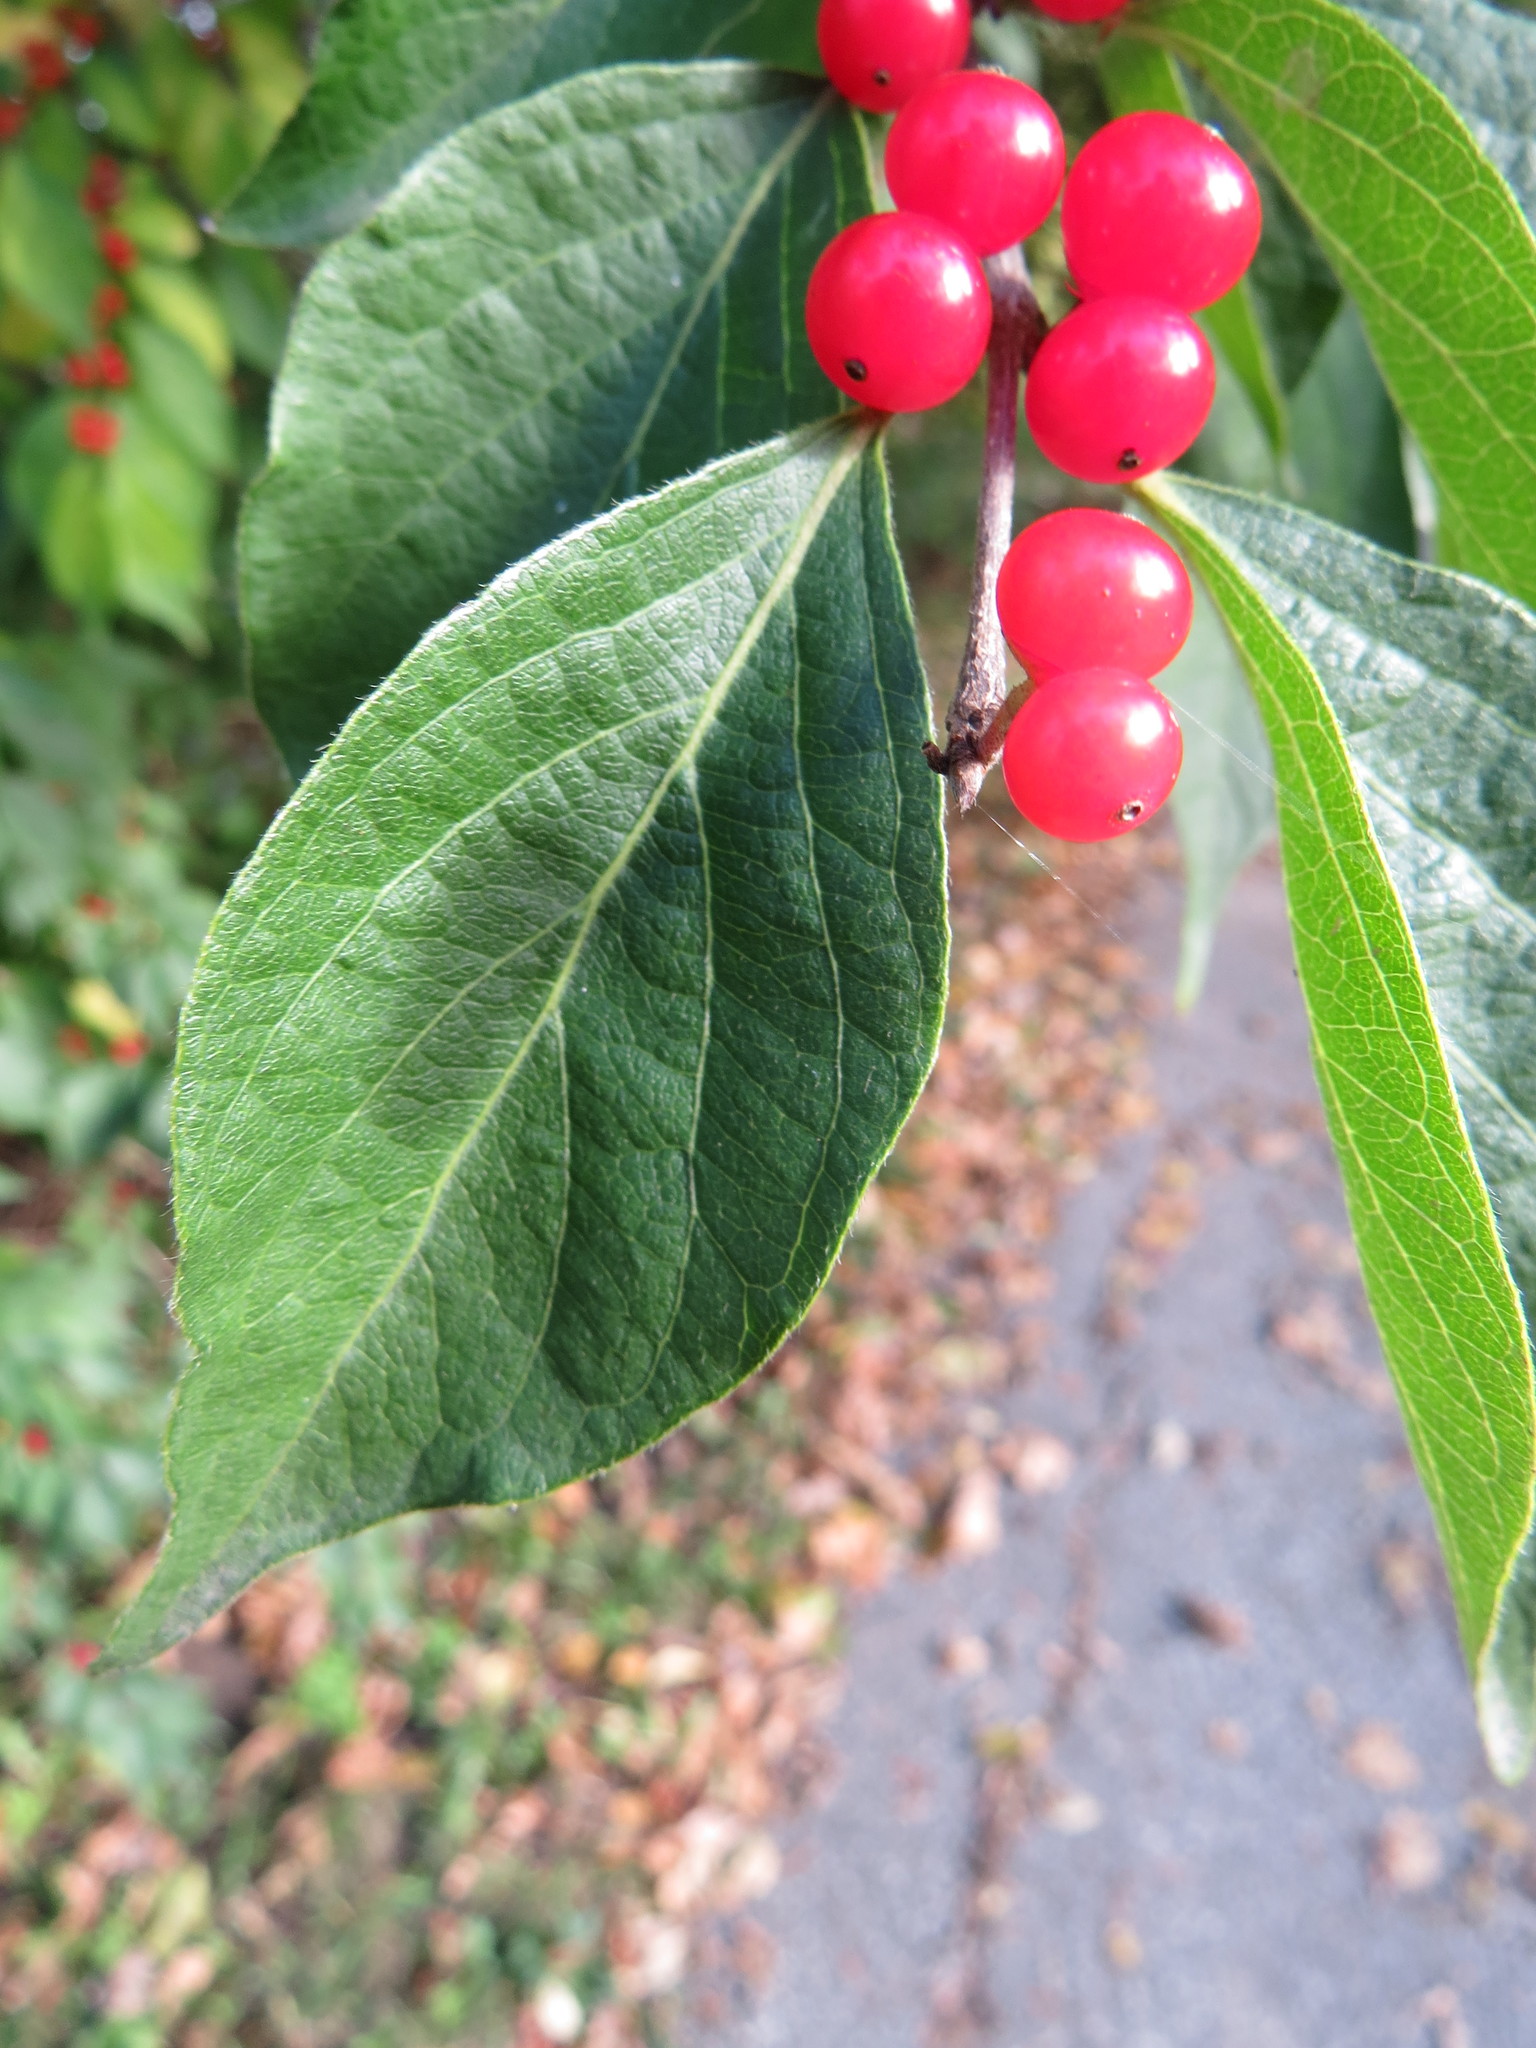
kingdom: Plantae
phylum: Tracheophyta
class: Magnoliopsida
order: Dipsacales
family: Caprifoliaceae
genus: Lonicera
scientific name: Lonicera maackii
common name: Amur honeysuckle
